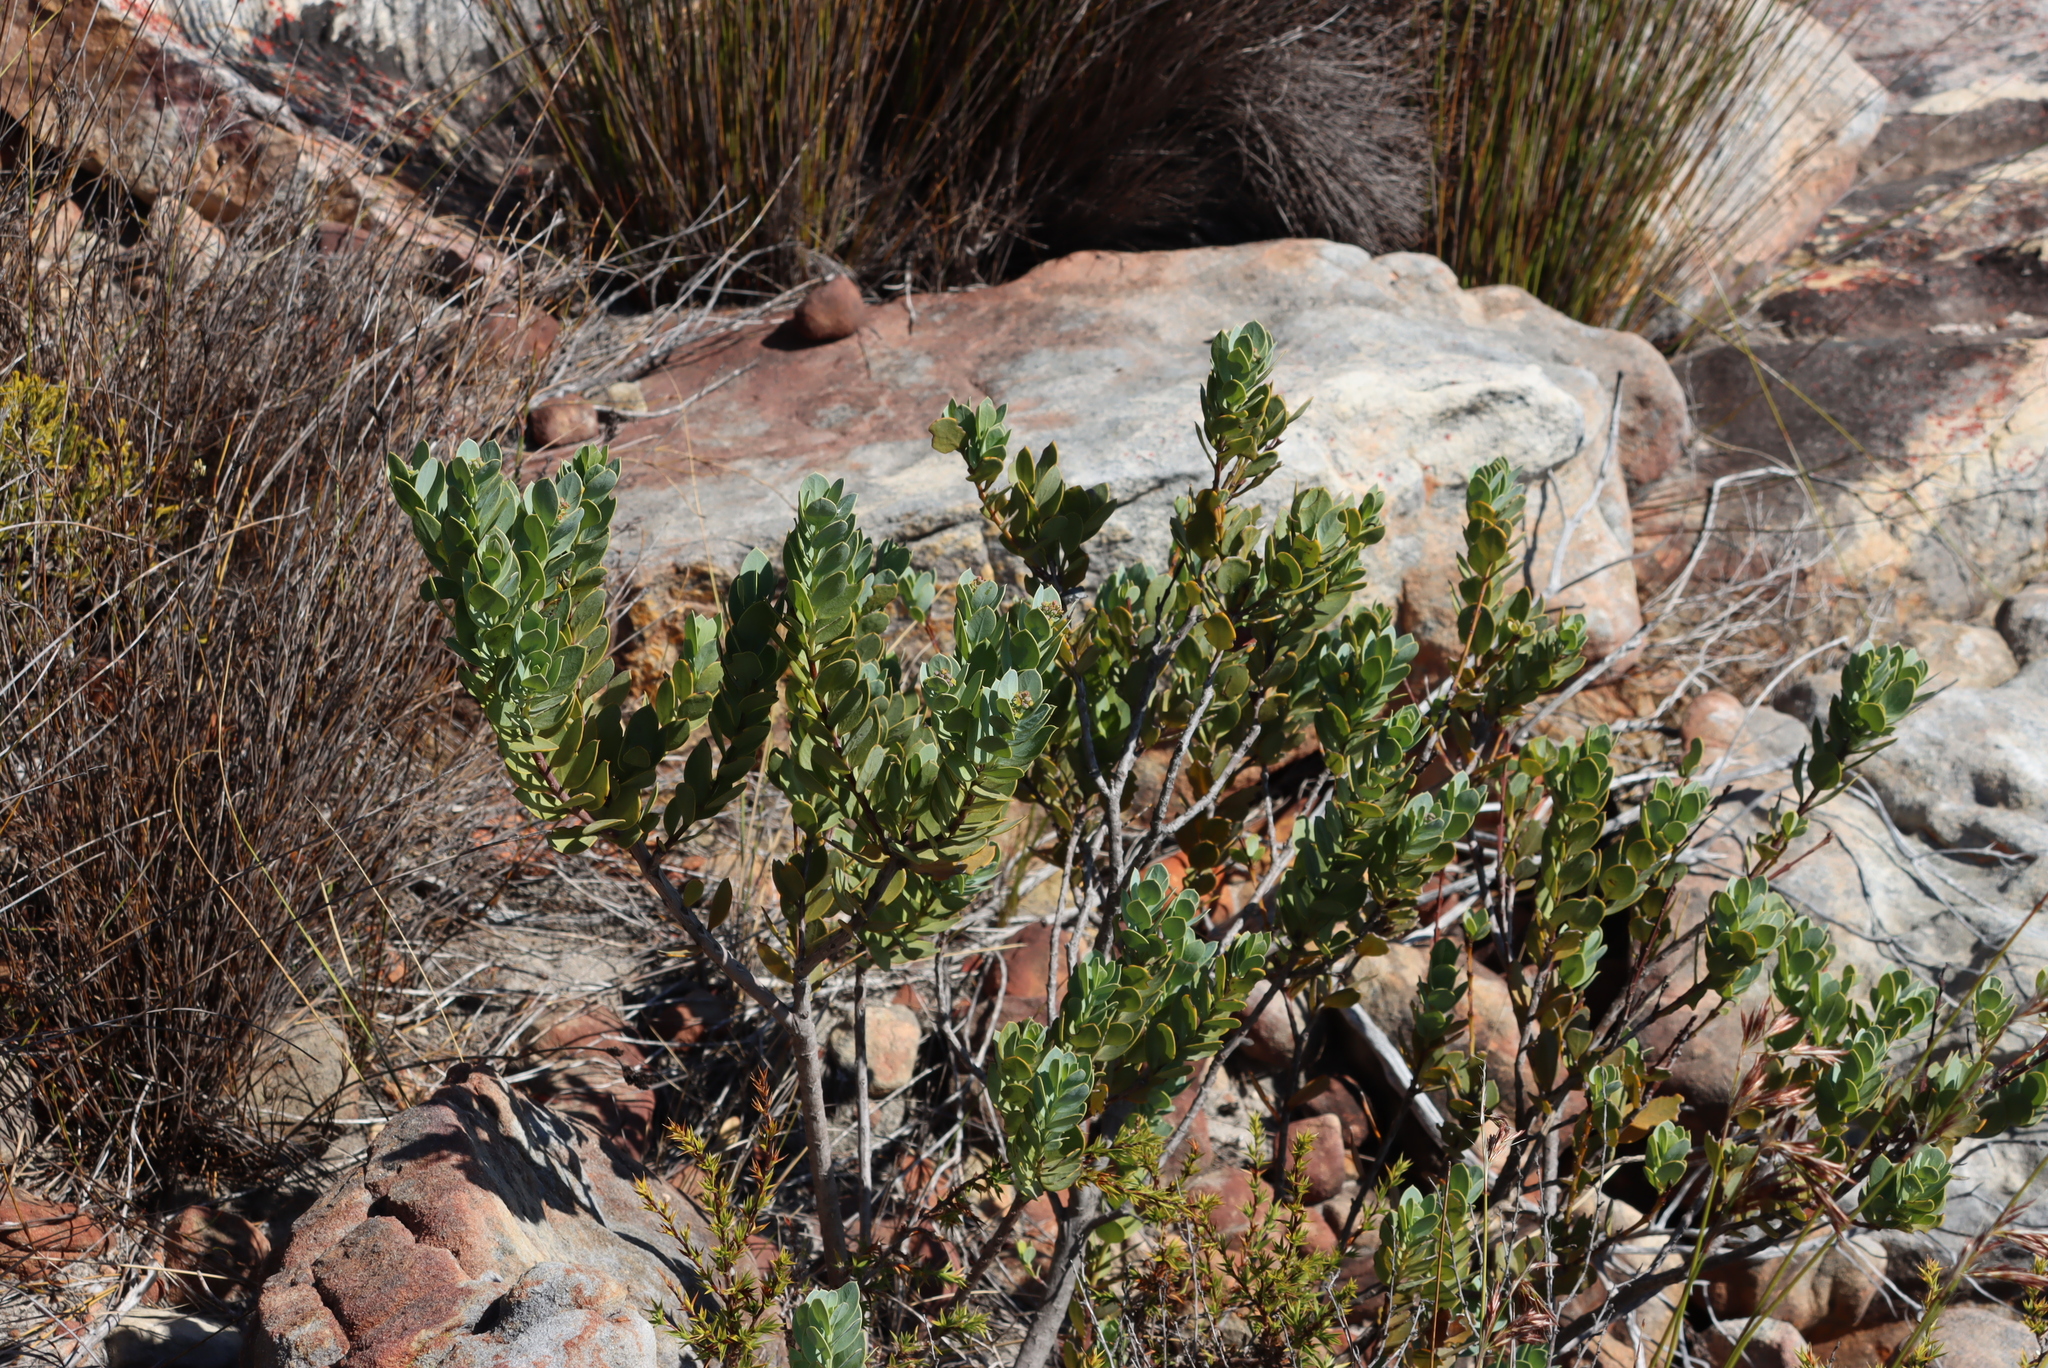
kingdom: Plantae
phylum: Tracheophyta
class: Magnoliopsida
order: Santalales
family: Santalaceae
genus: Osyris
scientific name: Osyris compressa
